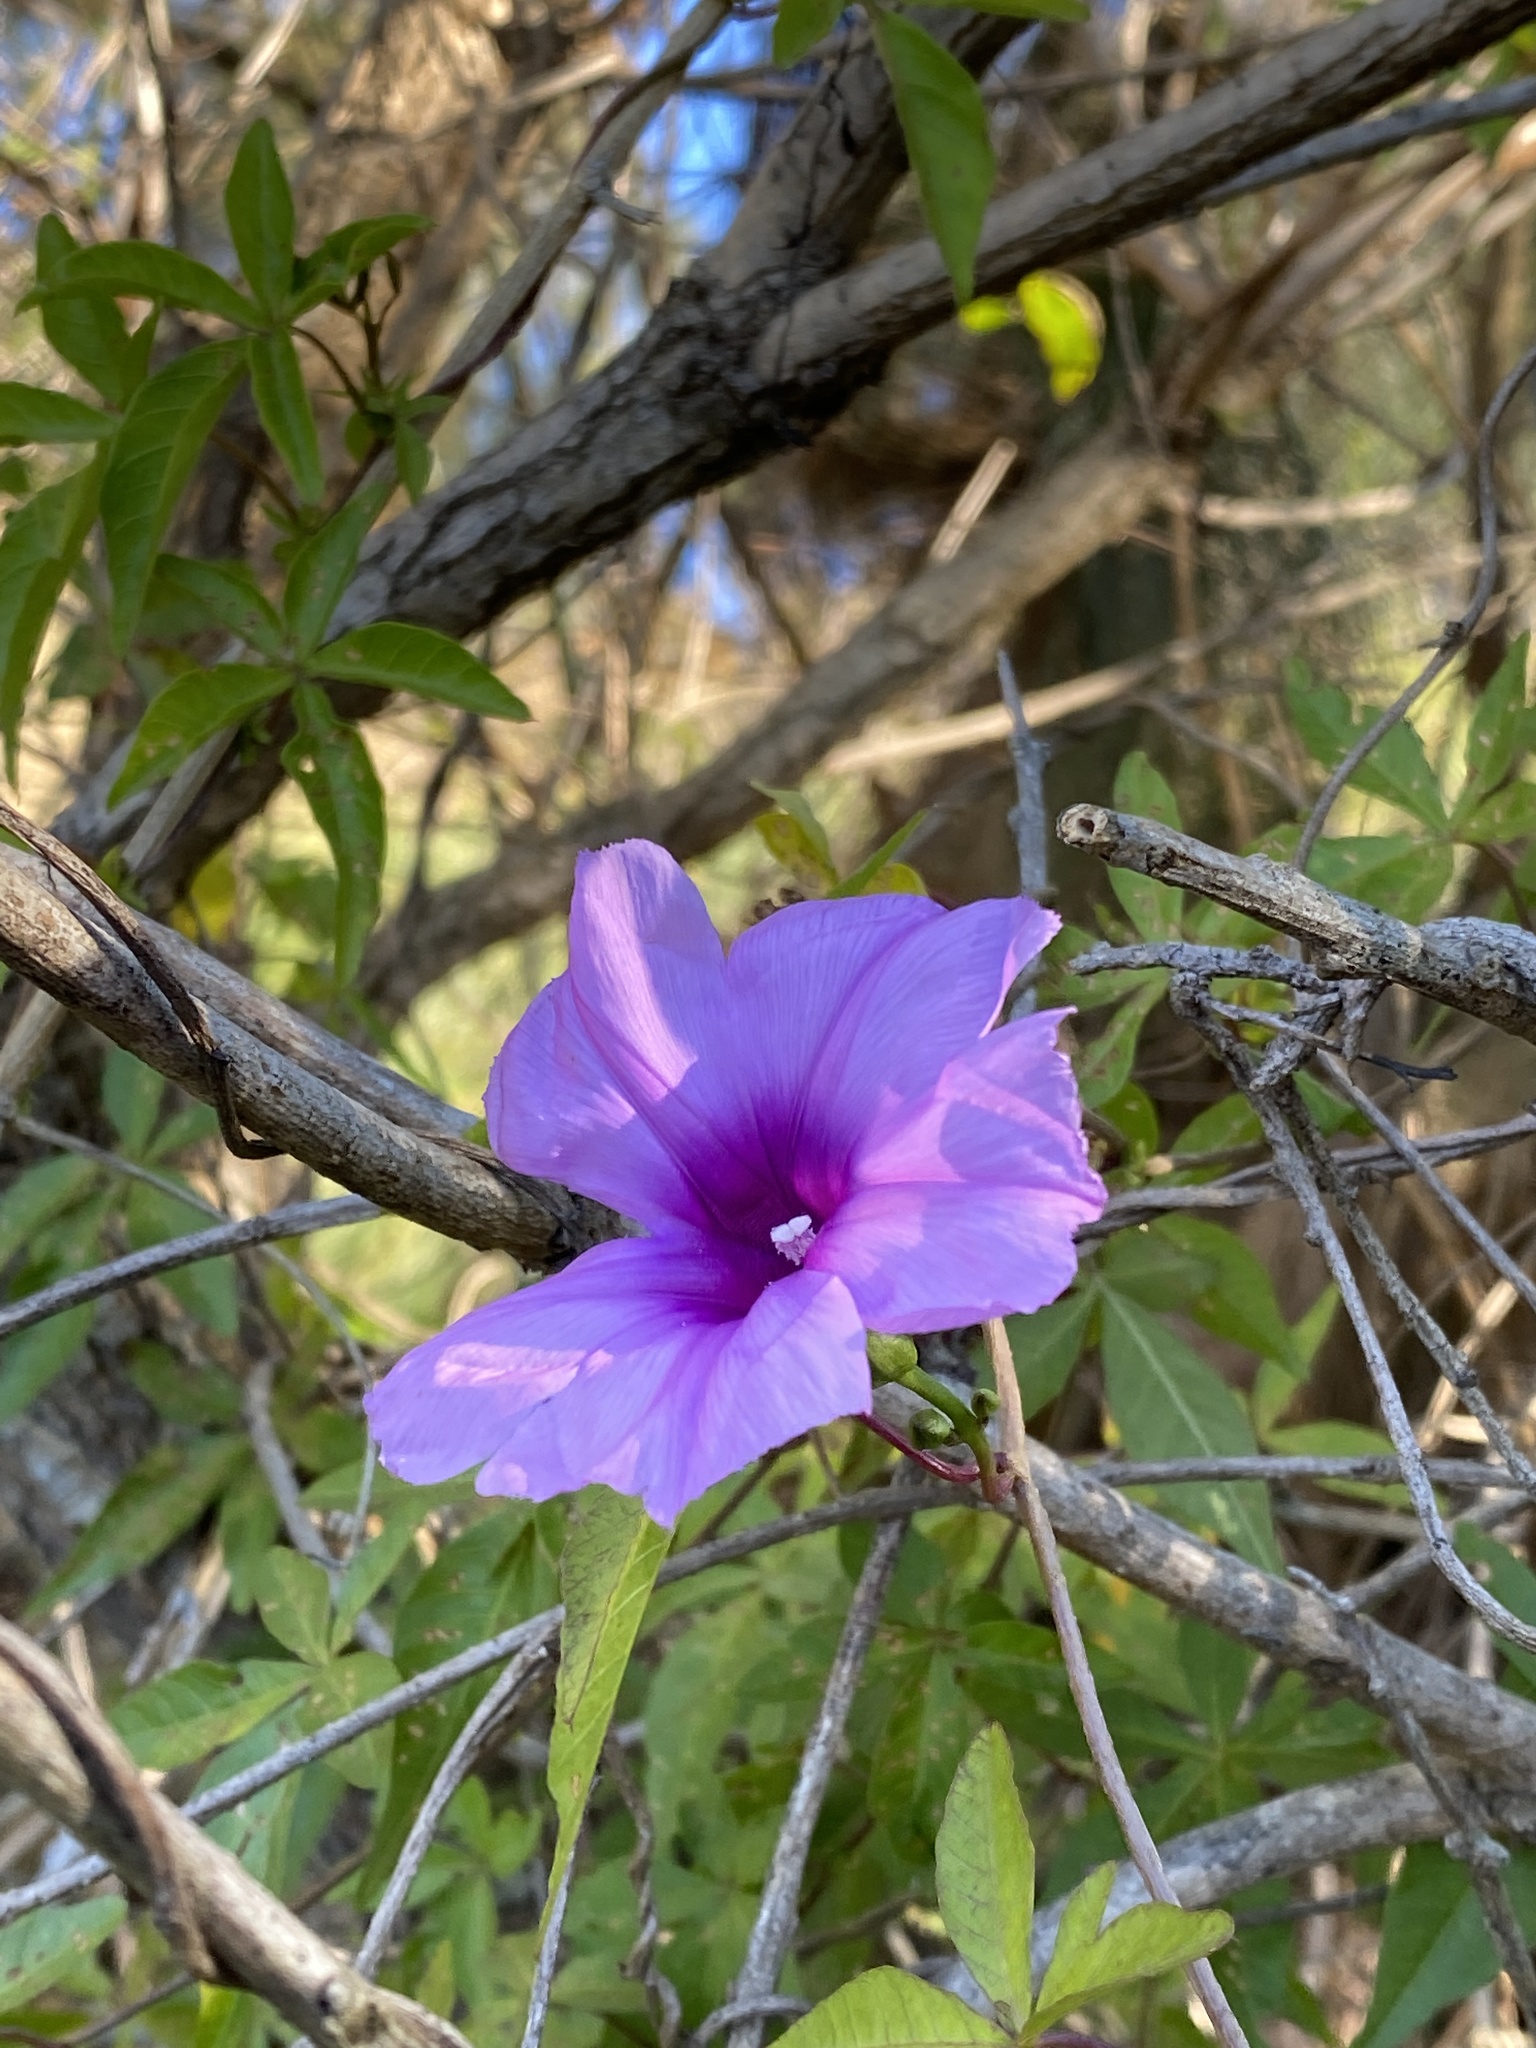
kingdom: Plantae
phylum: Tracheophyta
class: Magnoliopsida
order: Solanales
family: Convolvulaceae
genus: Ipomoea
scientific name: Ipomoea cairica
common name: Mile a minute vine
